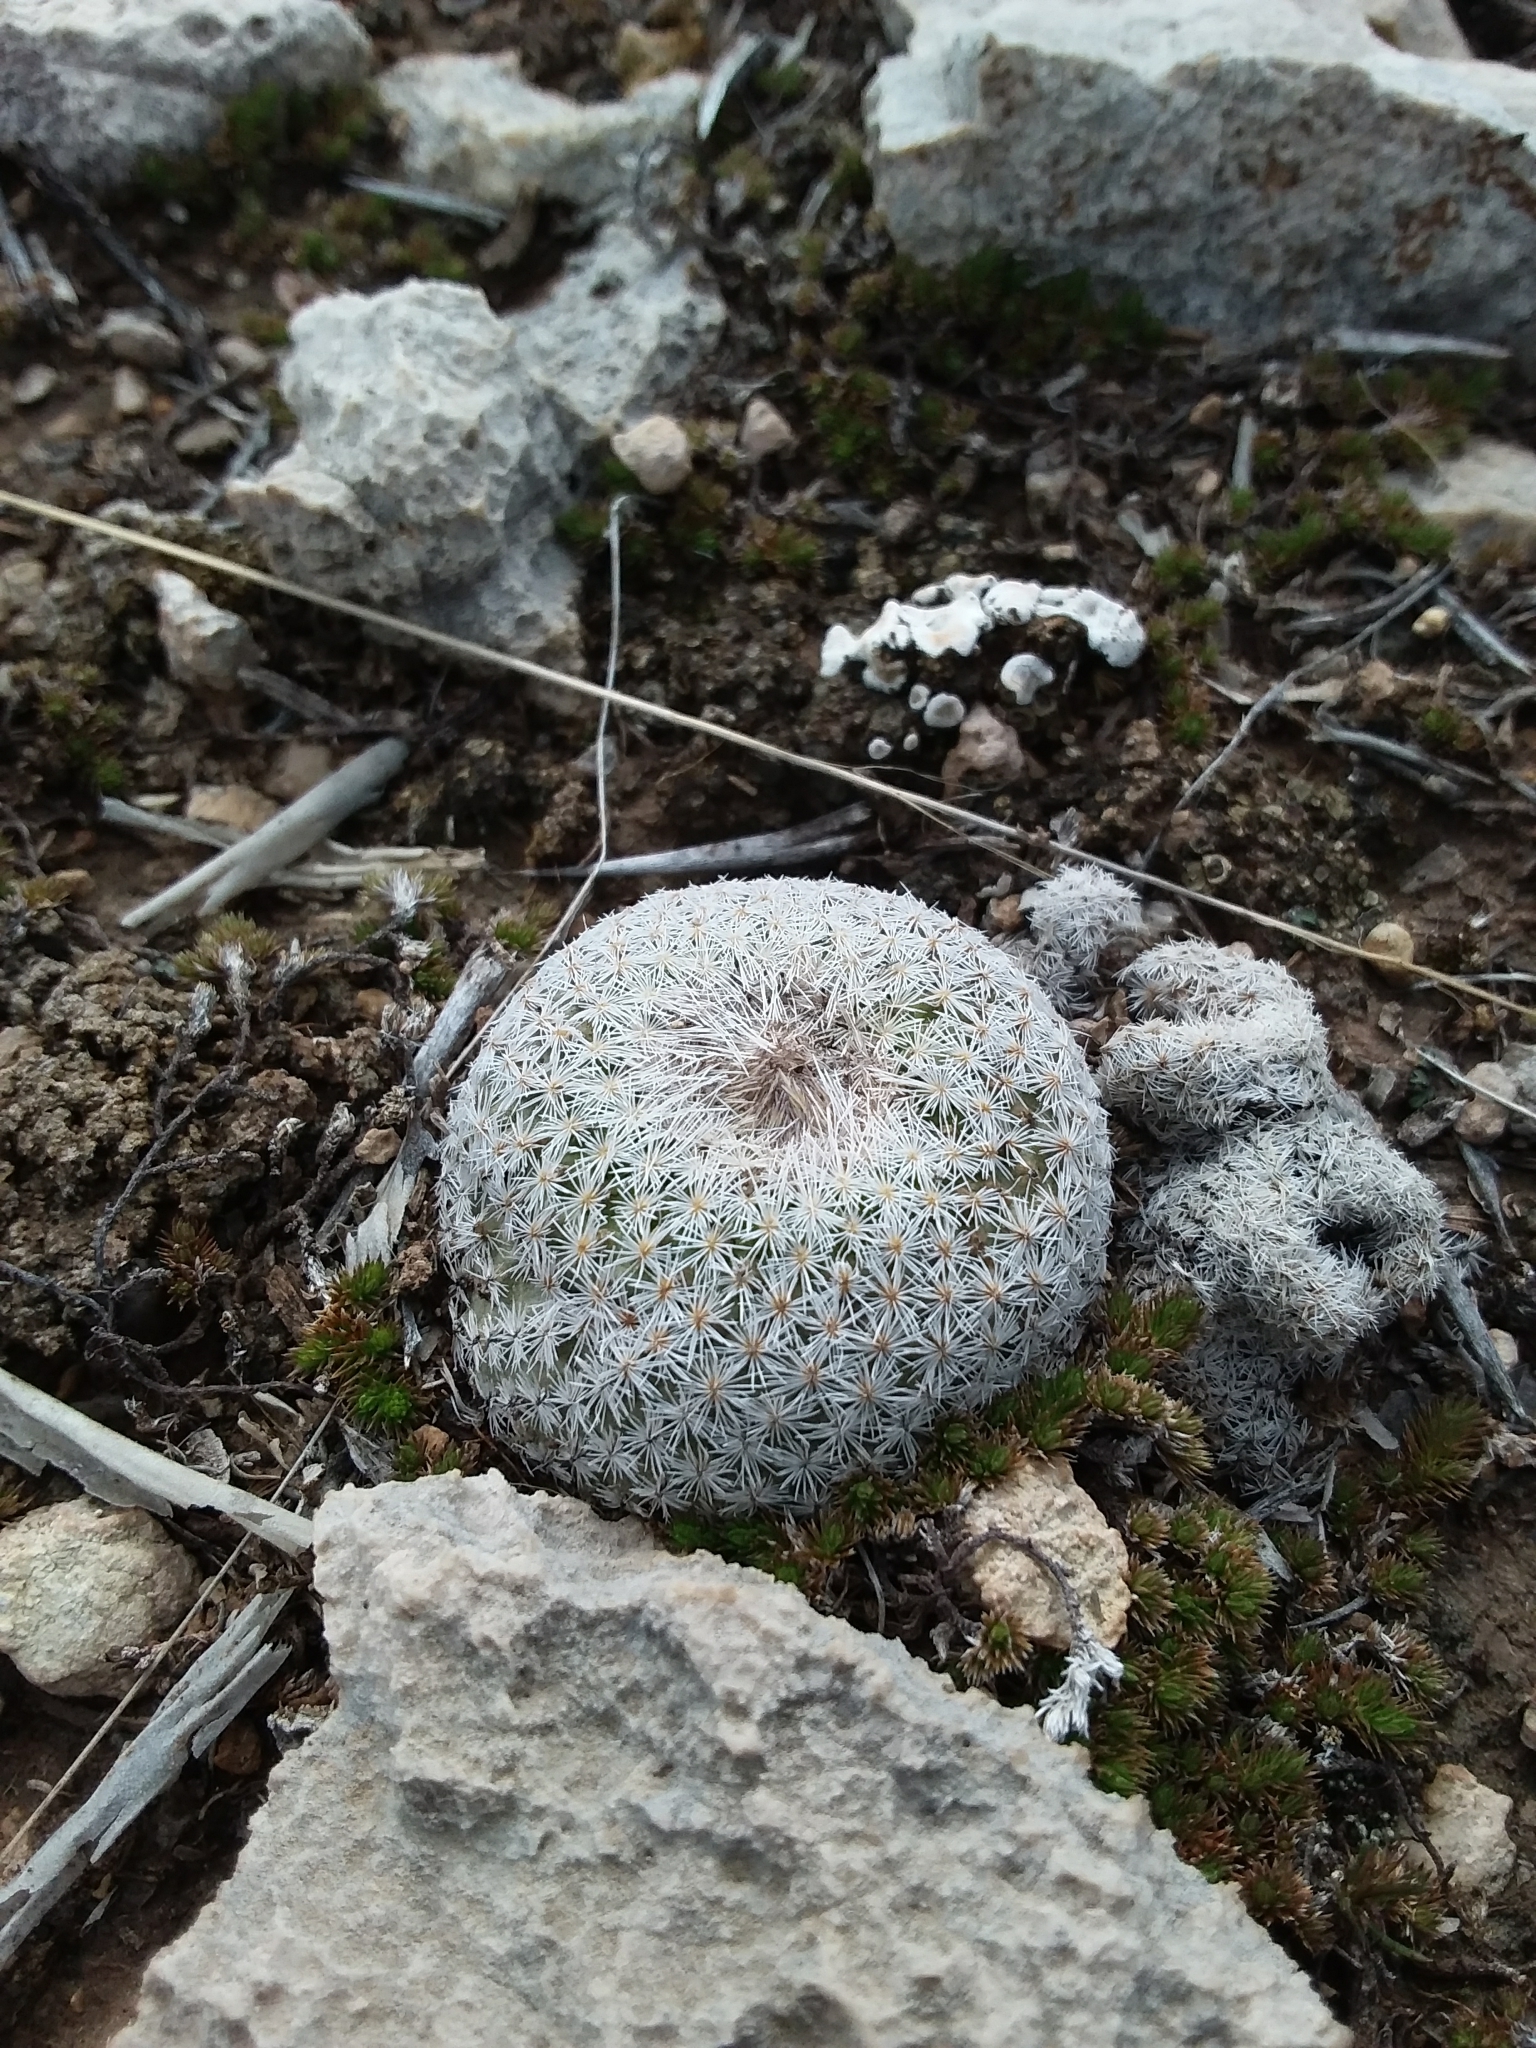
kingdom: Plantae
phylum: Tracheophyta
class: Magnoliopsida
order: Caryophyllales
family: Cactaceae
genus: Epithelantha
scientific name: Epithelantha micromeris
